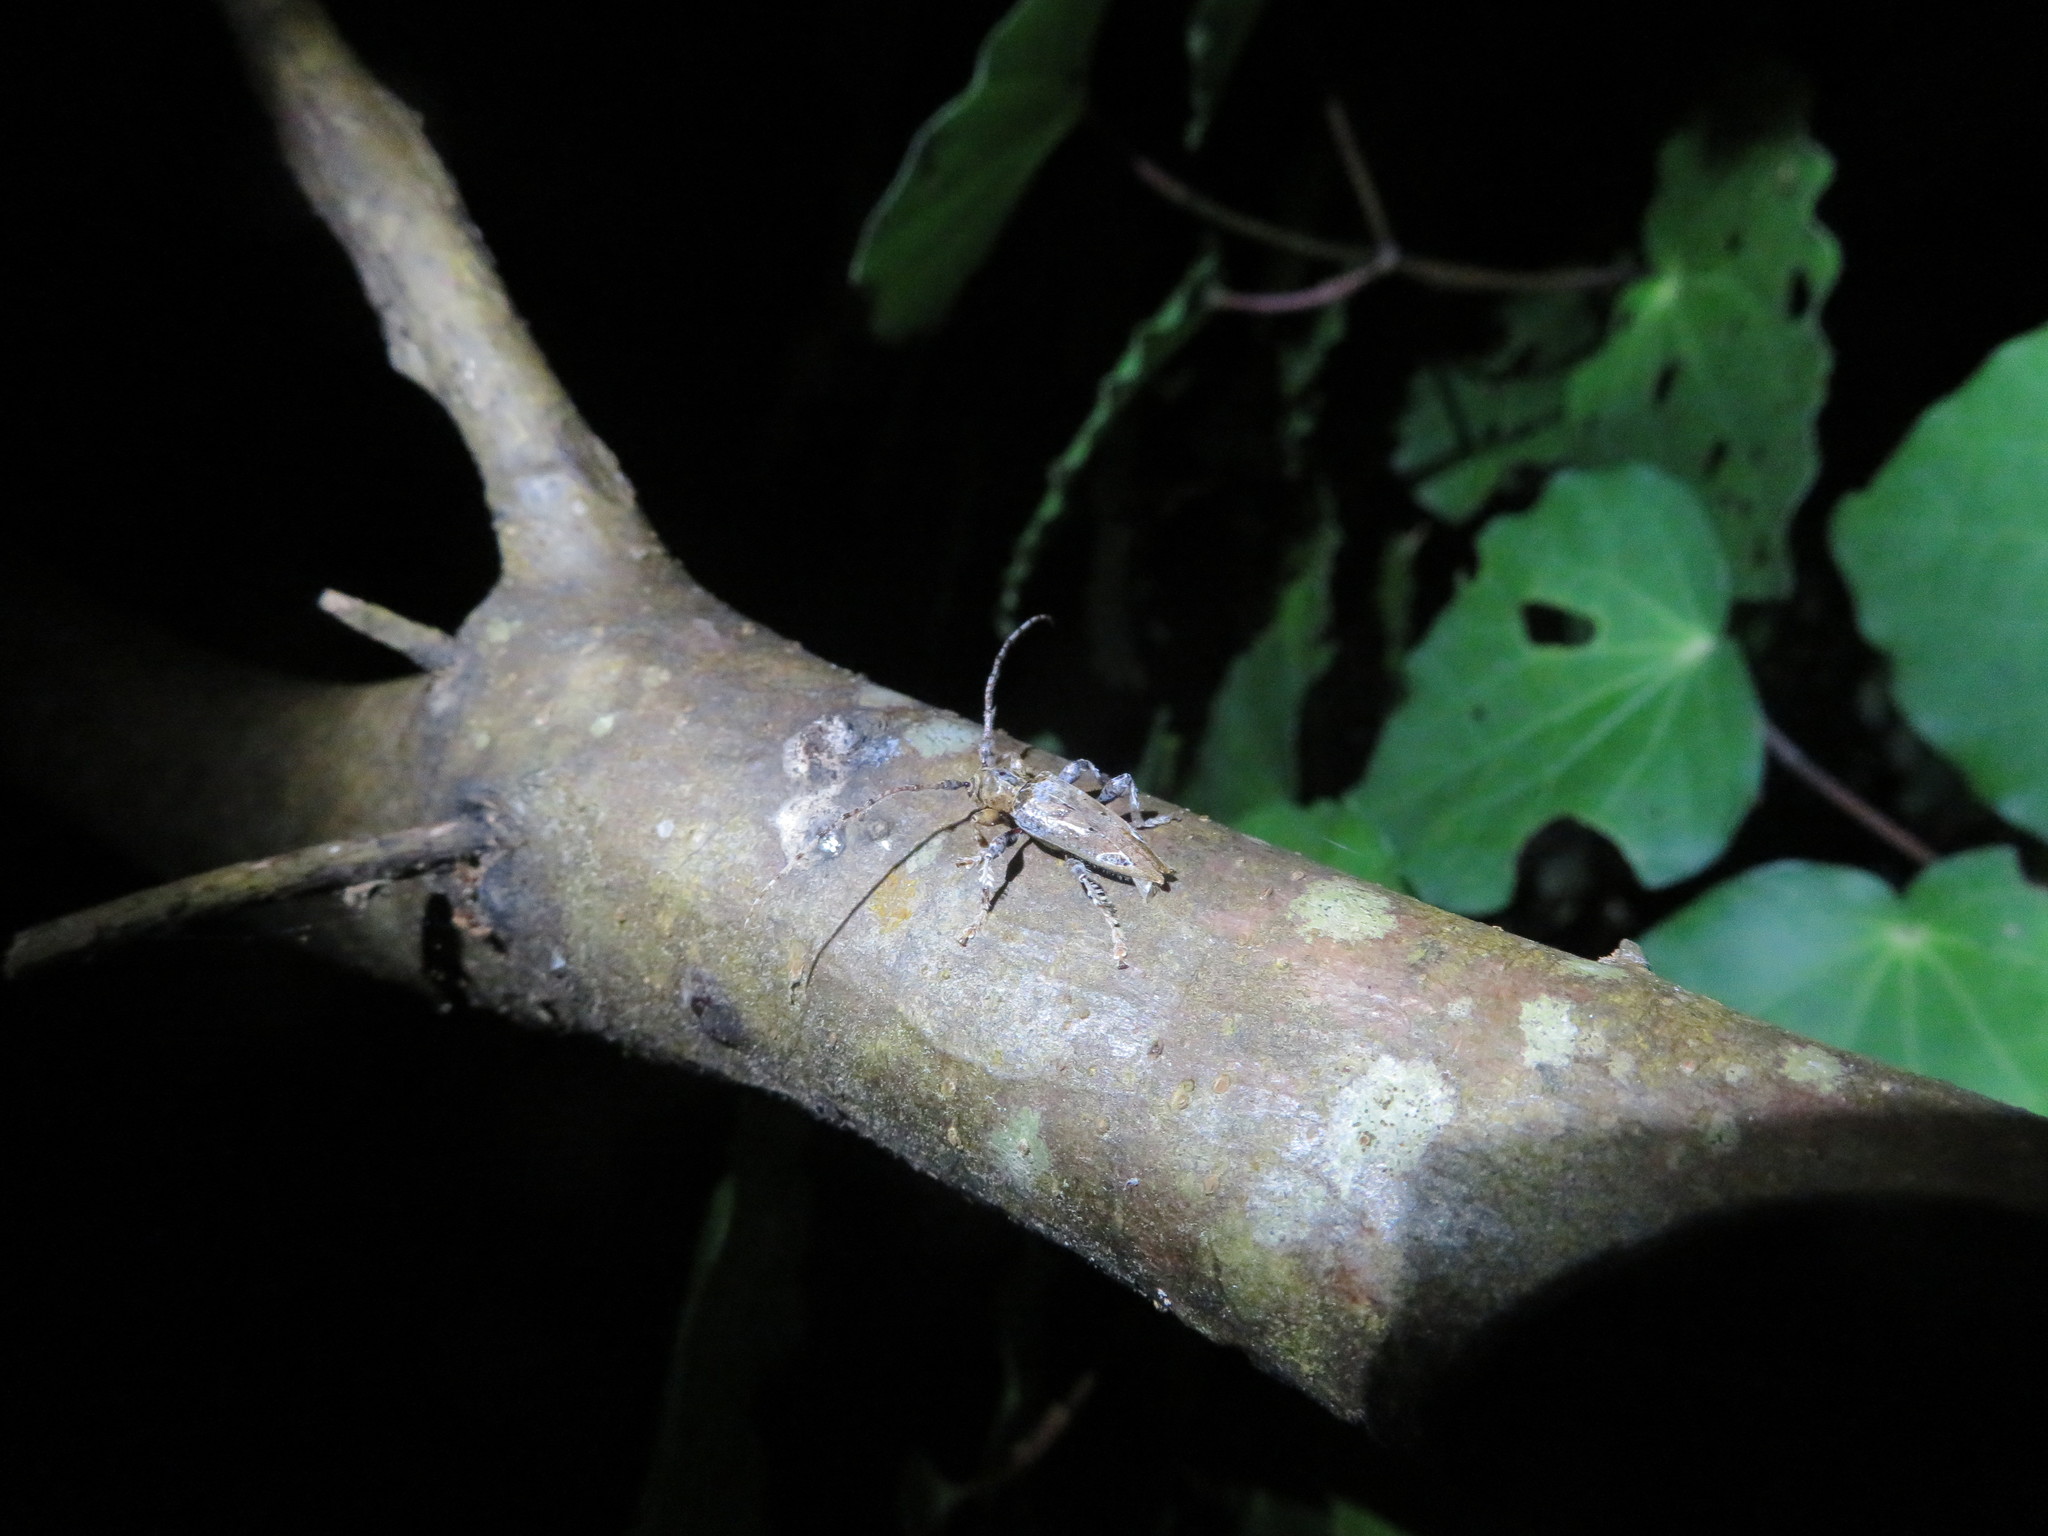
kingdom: Animalia
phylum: Arthropoda
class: Insecta
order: Coleoptera
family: Cerambycidae
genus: Tetrorea
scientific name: Tetrorea cilipes
